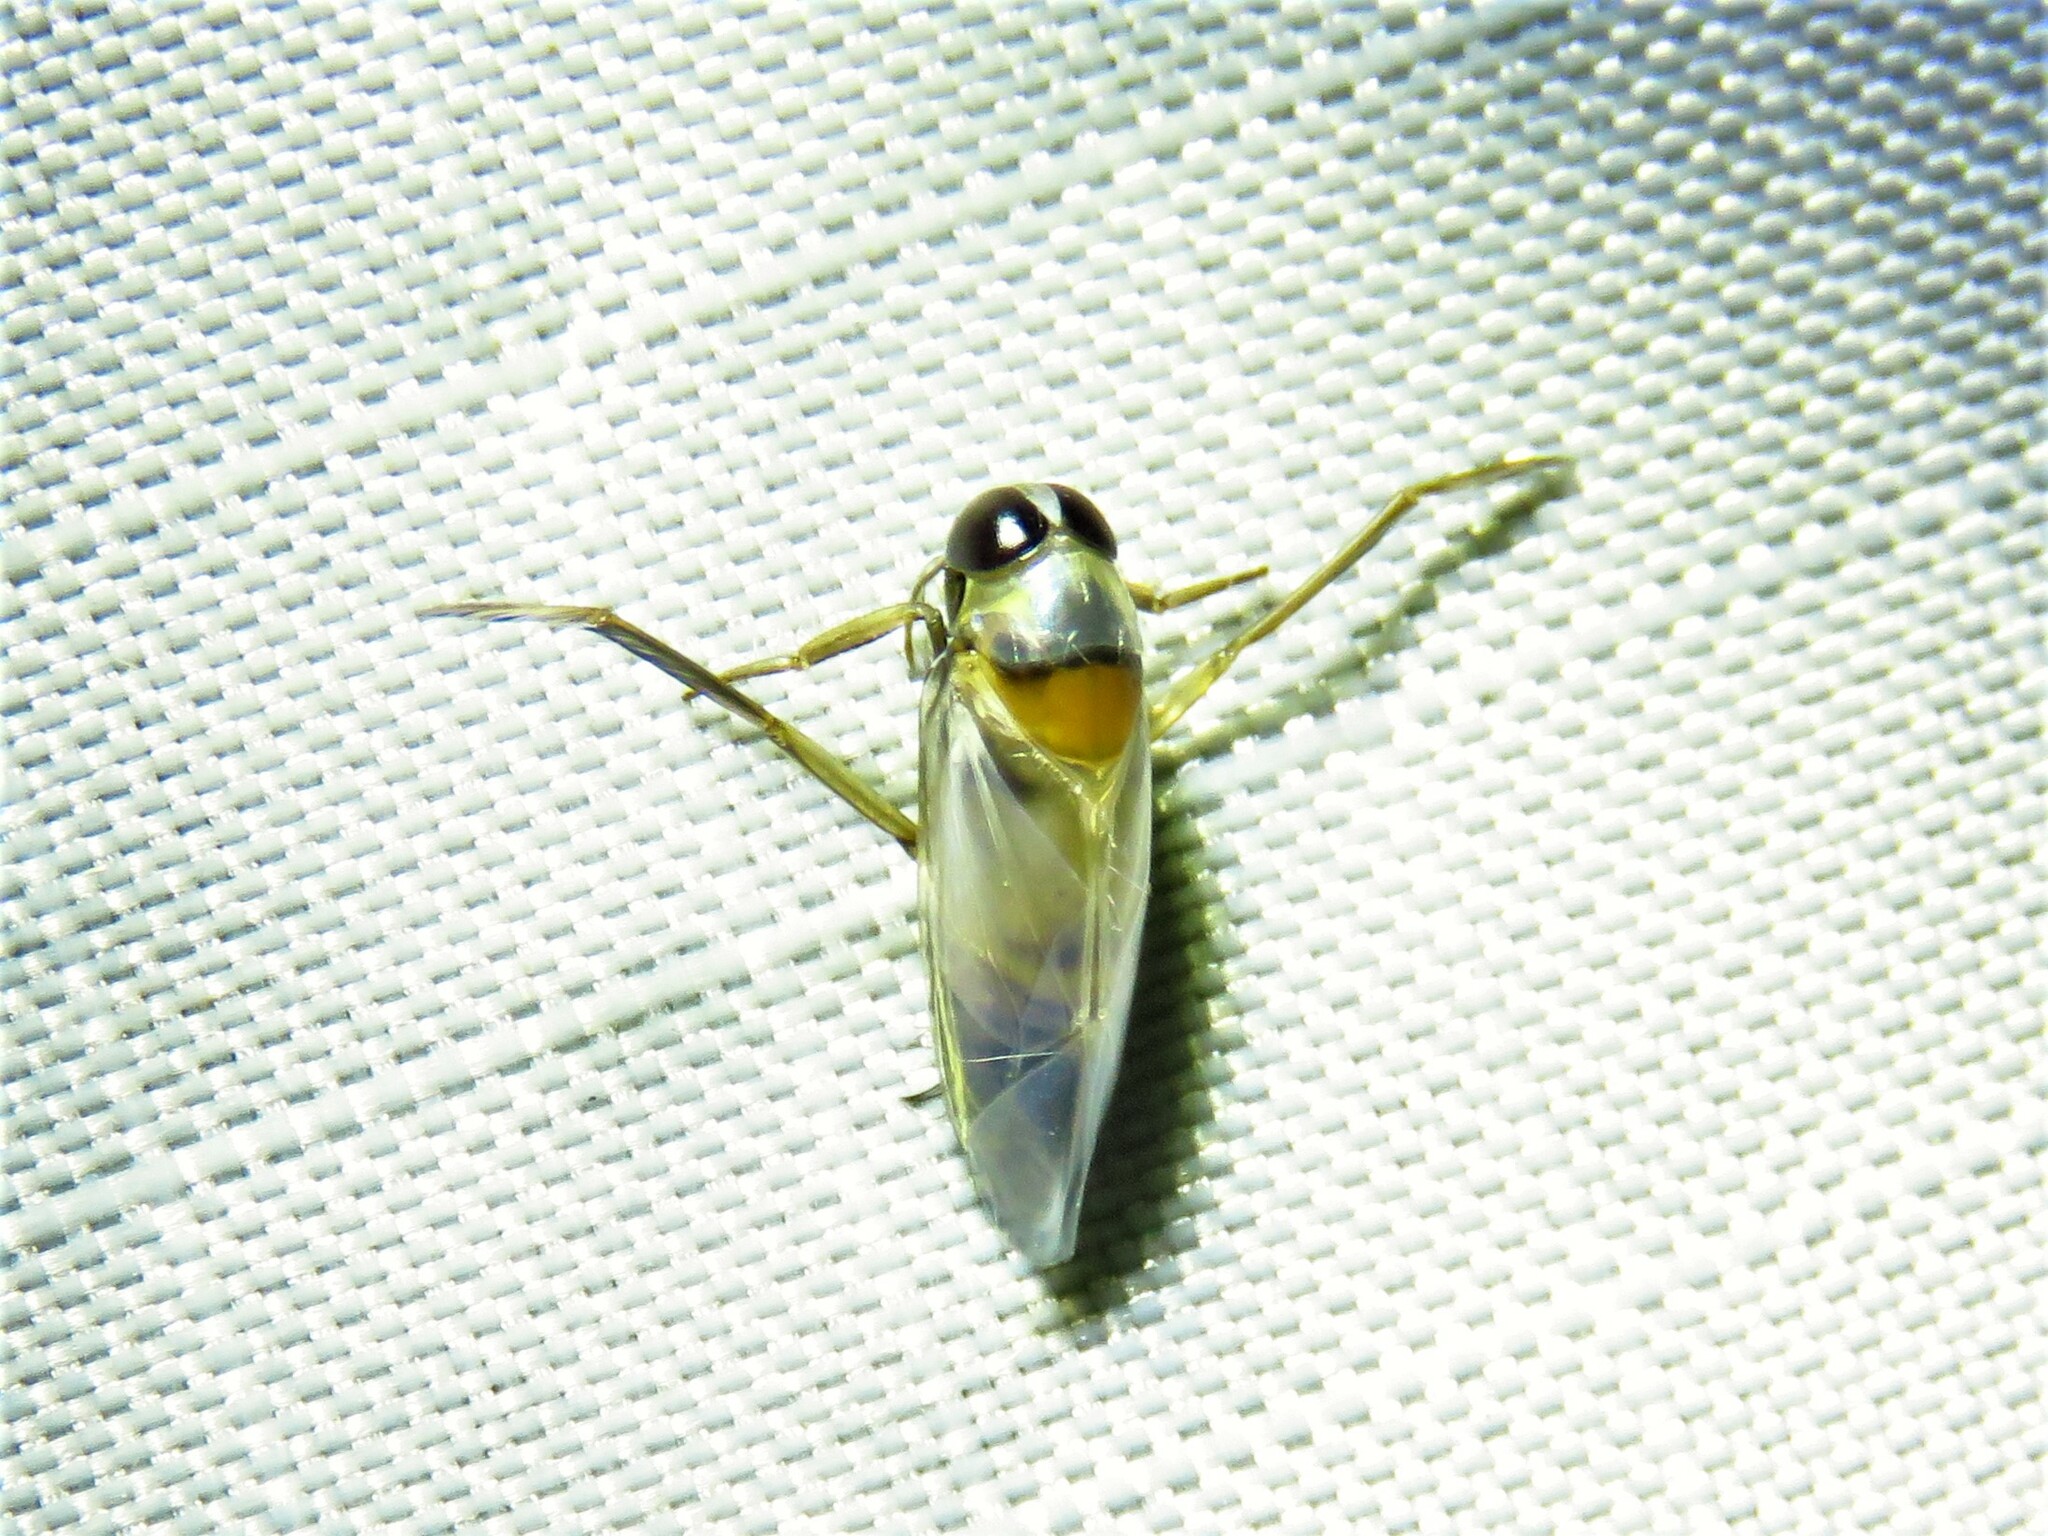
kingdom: Animalia
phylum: Arthropoda
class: Insecta
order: Hemiptera
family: Notonectidae
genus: Buenoa
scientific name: Buenoa
